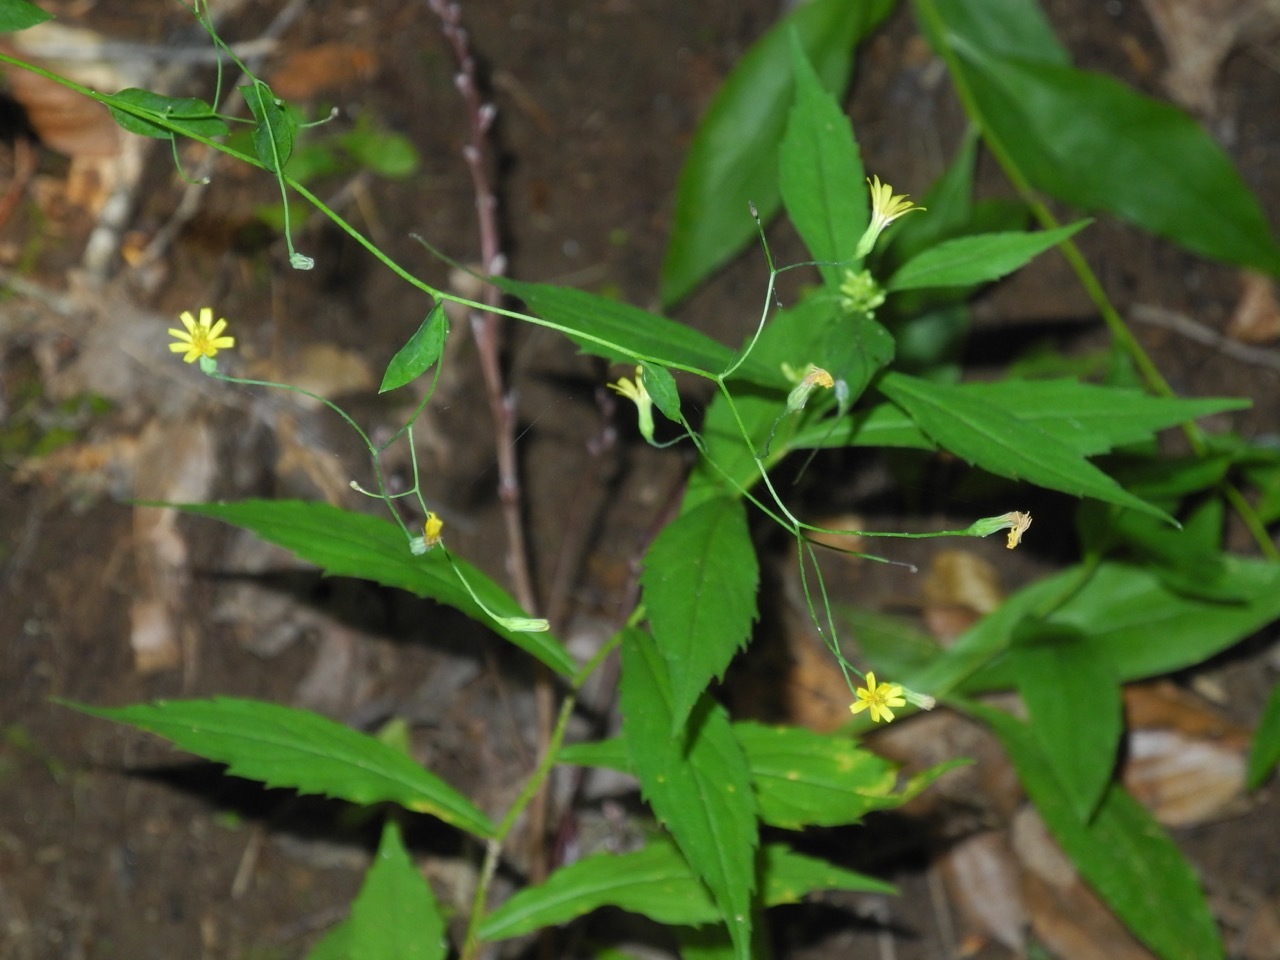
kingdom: Plantae
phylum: Tracheophyta
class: Magnoliopsida
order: Asterales
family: Asteraceae
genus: Hieracium
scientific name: Hieracium paniculatum
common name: Allegheny hawkweed
